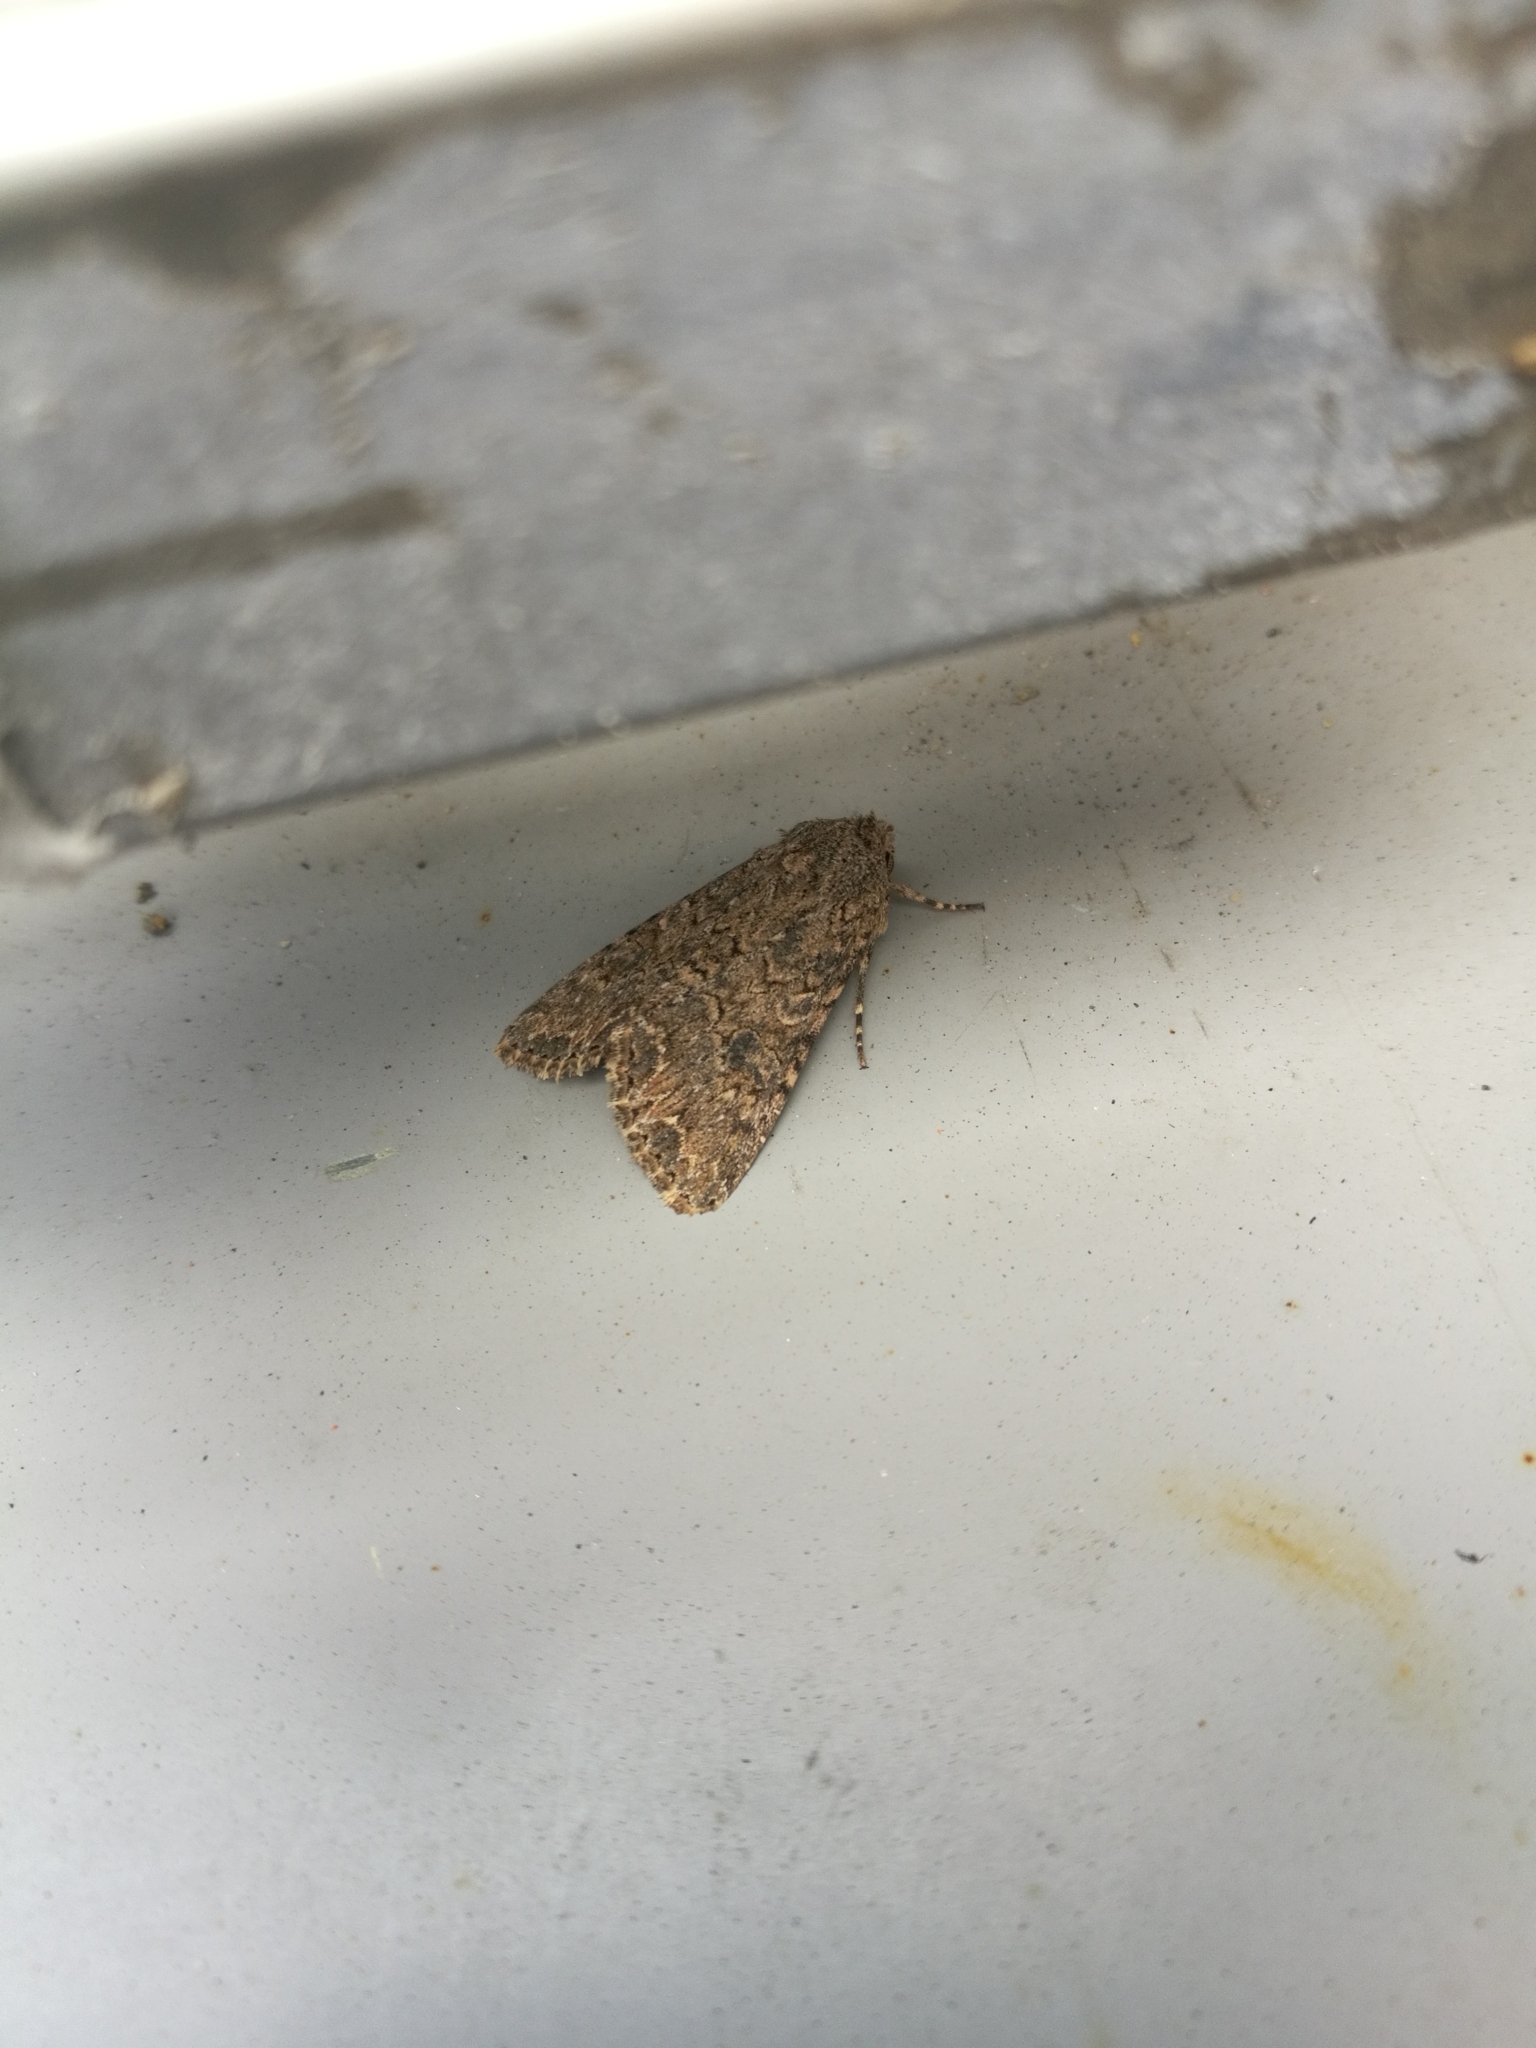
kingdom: Animalia
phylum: Arthropoda
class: Insecta
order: Lepidoptera
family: Noctuidae
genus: Anarta
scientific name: Anarta trifolii
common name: Clover cutworm moth
